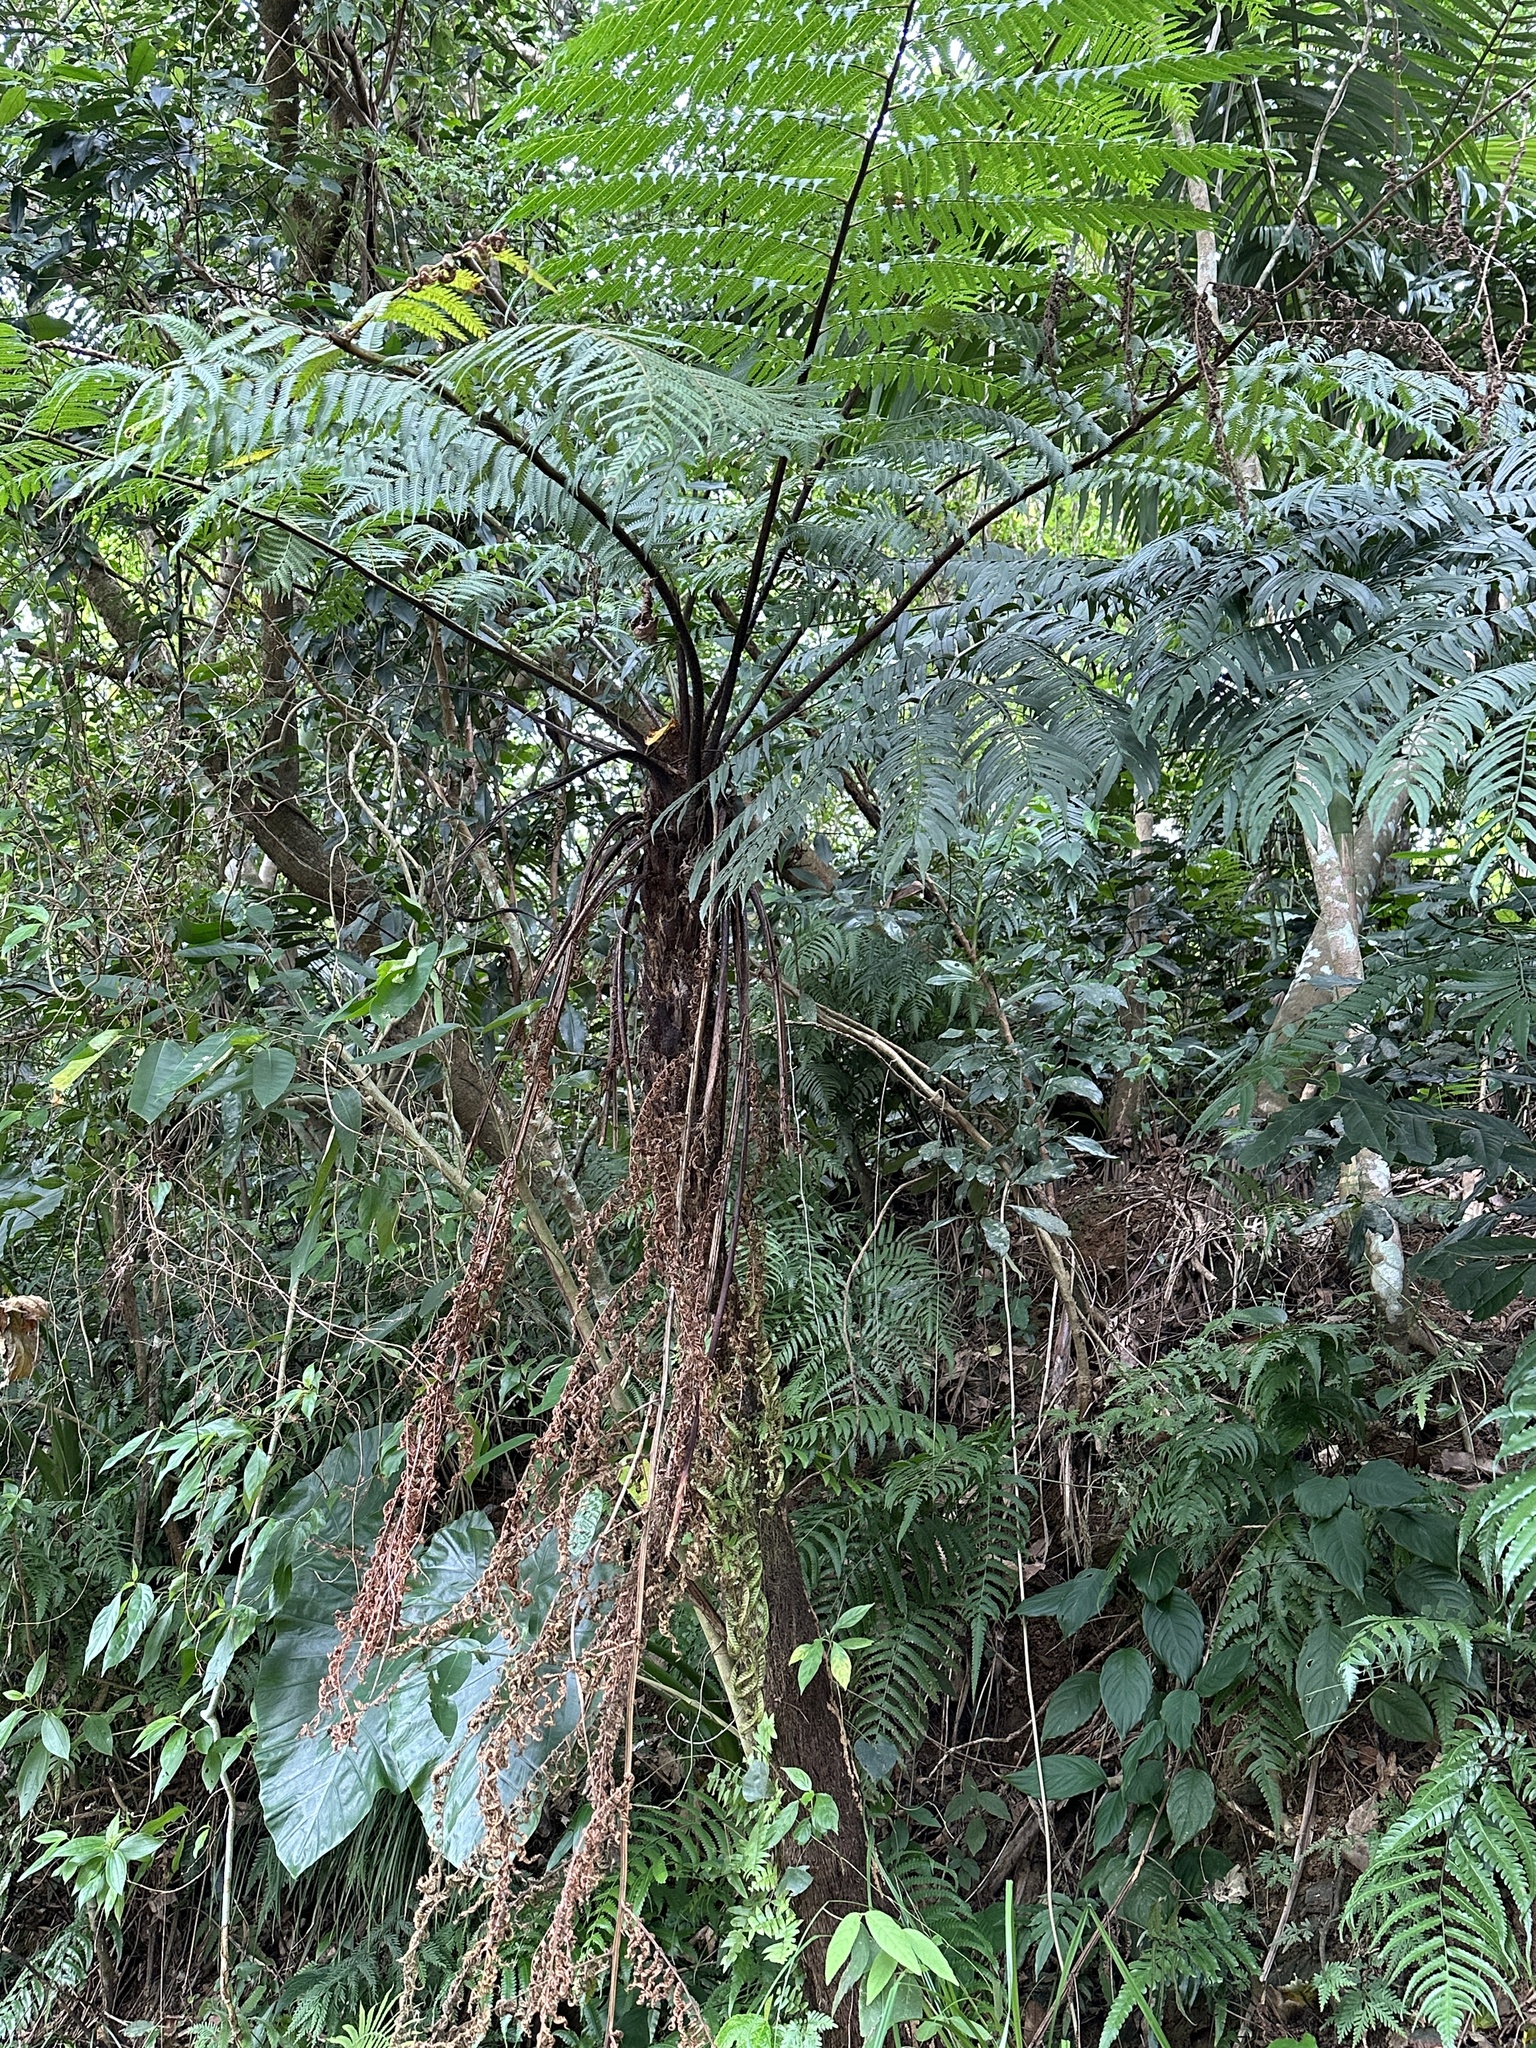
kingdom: Plantae
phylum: Tracheophyta
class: Polypodiopsida
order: Cyatheales
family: Cyatheaceae
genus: Alsophila
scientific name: Alsophila spinulosa
